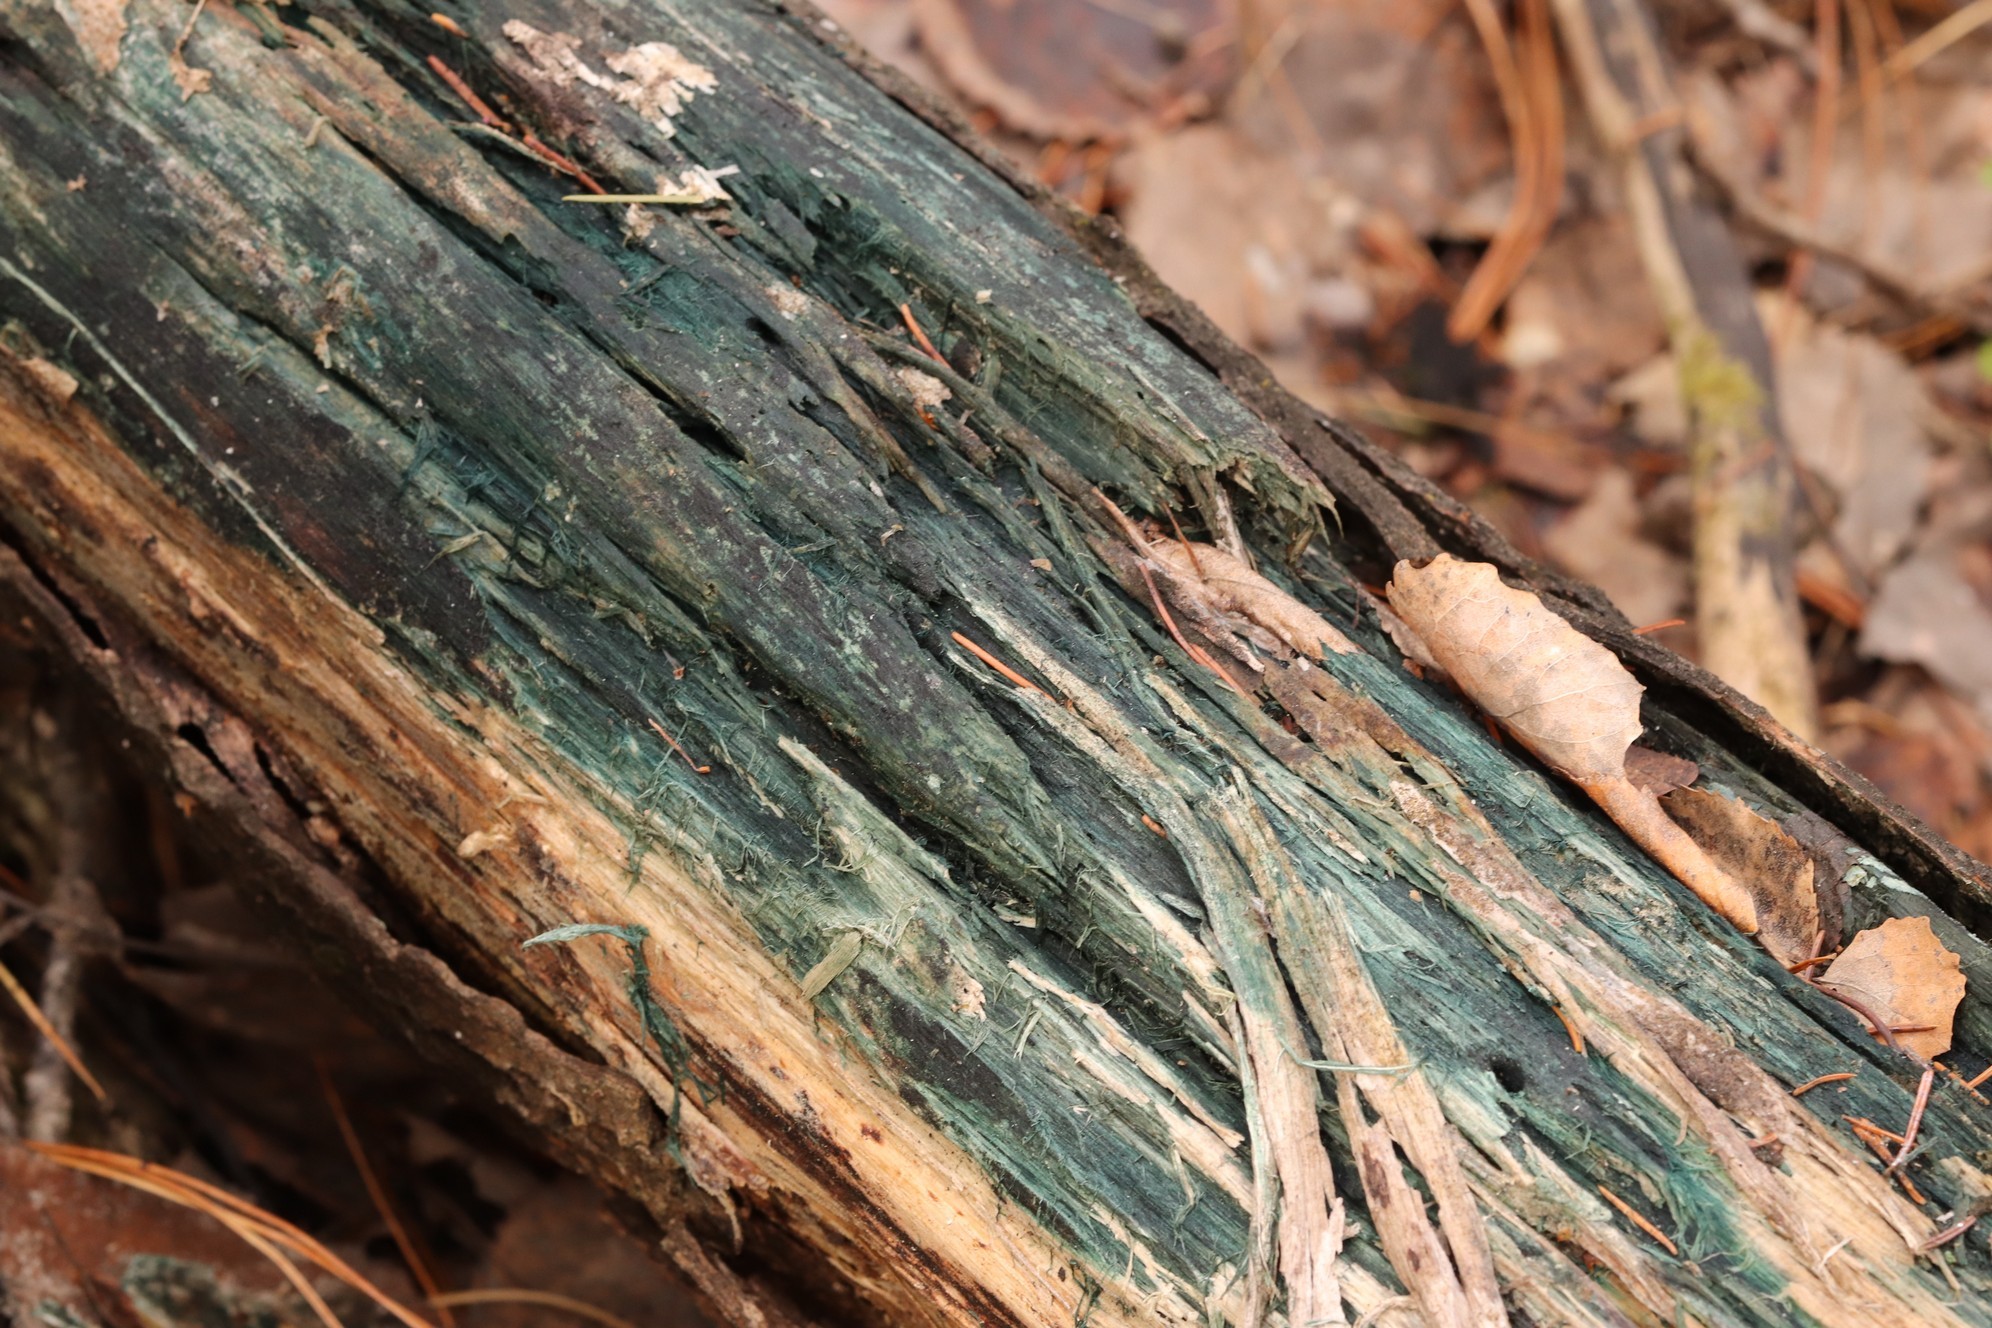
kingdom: Fungi
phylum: Ascomycota
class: Leotiomycetes
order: Helotiales
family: Chlorociboriaceae
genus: Chlorociboria
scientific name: Chlorociboria aeruginascens
